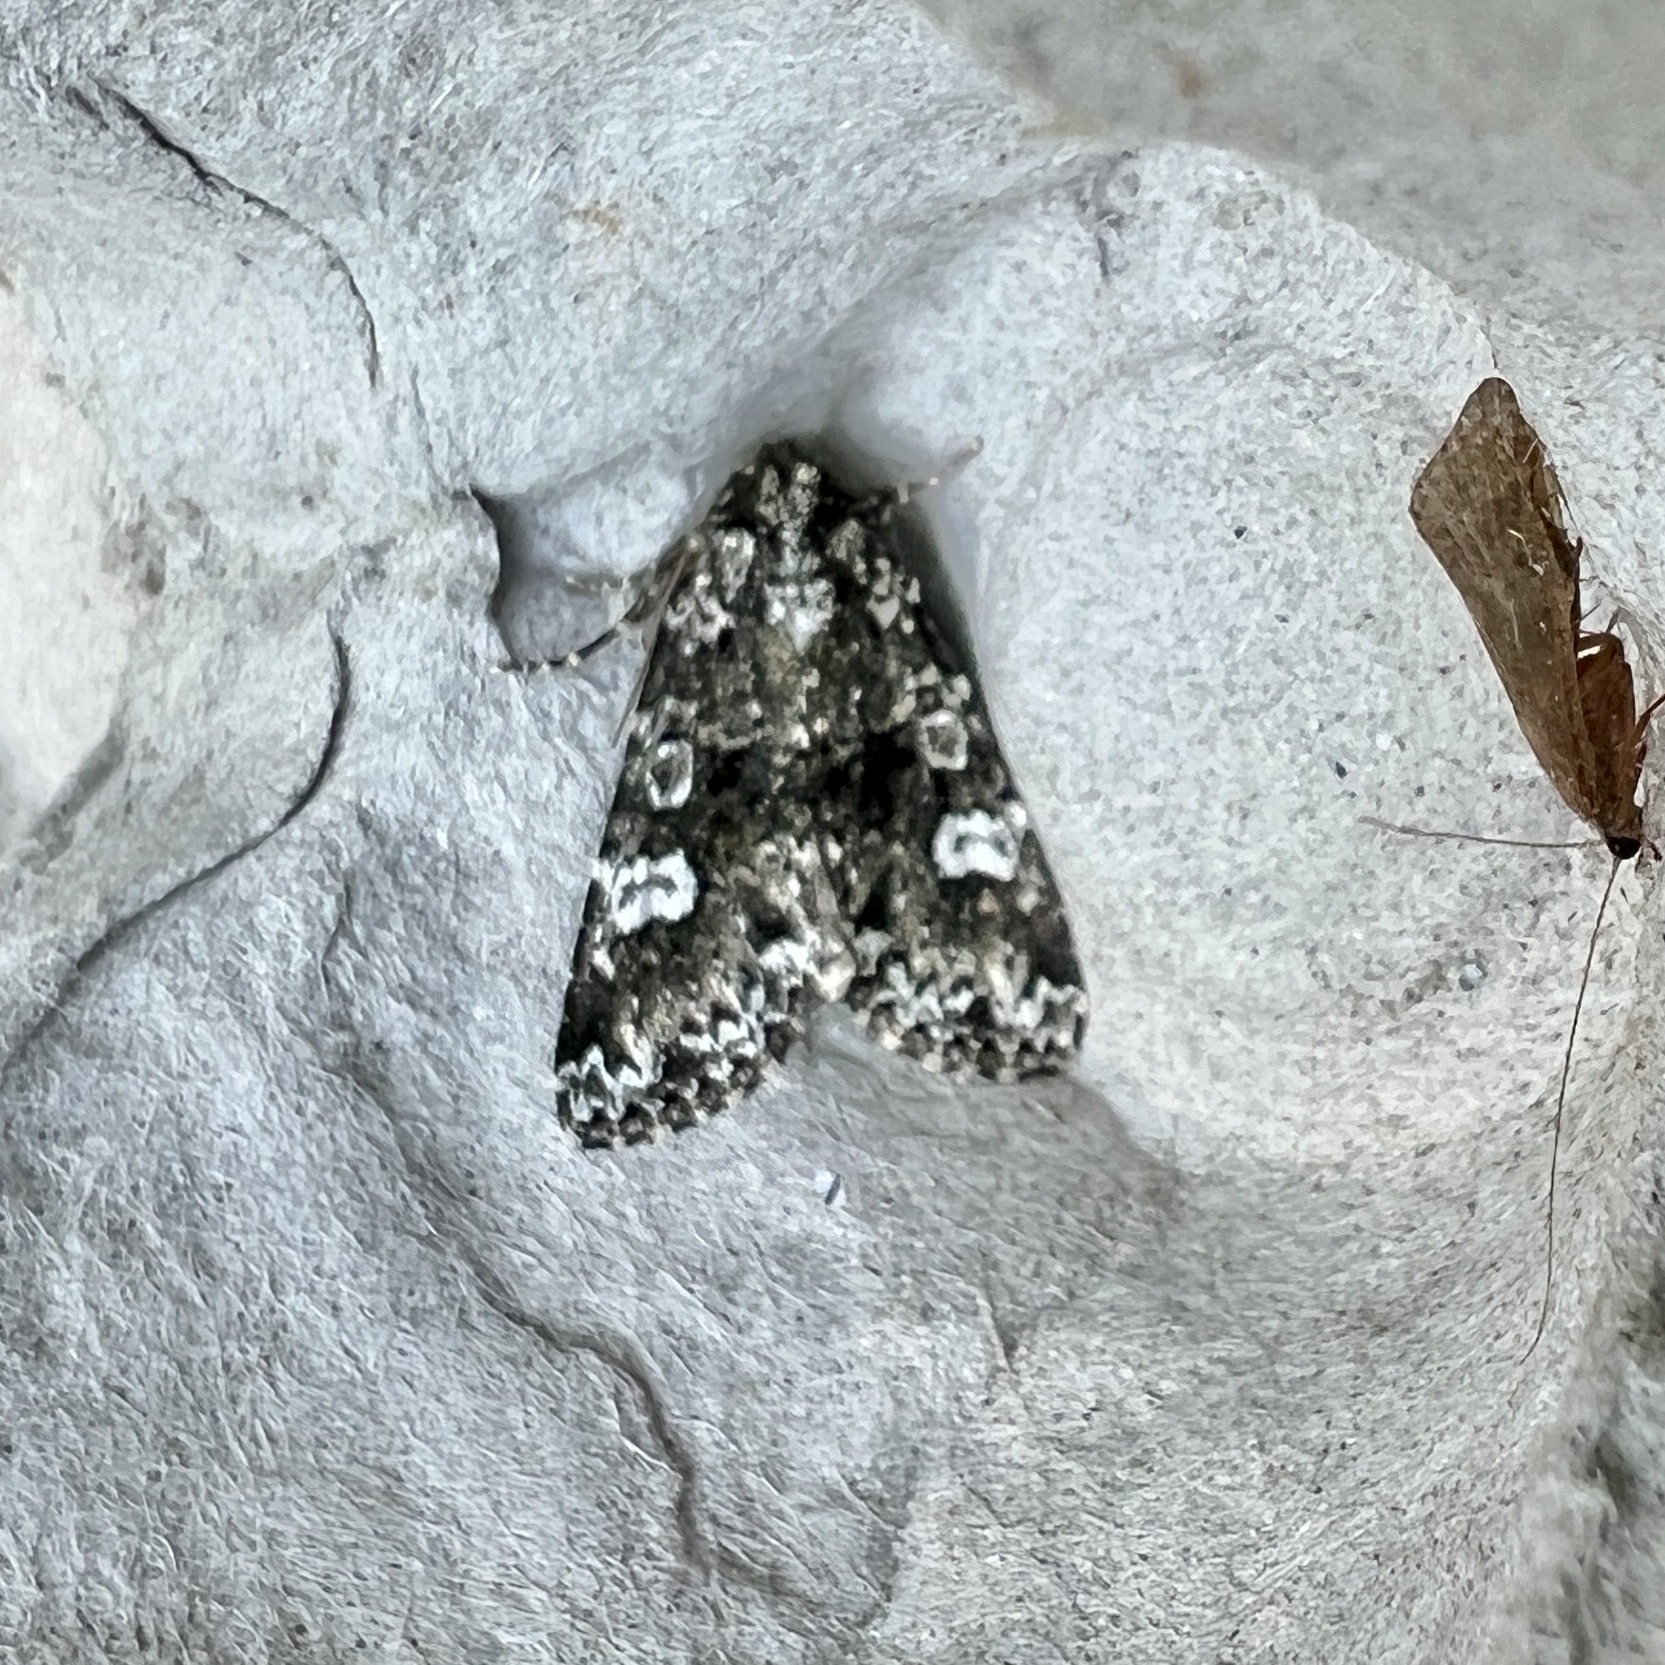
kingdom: Animalia
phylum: Arthropoda
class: Insecta
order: Lepidoptera
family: Noctuidae
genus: Melanchra
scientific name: Melanchra adjuncta
